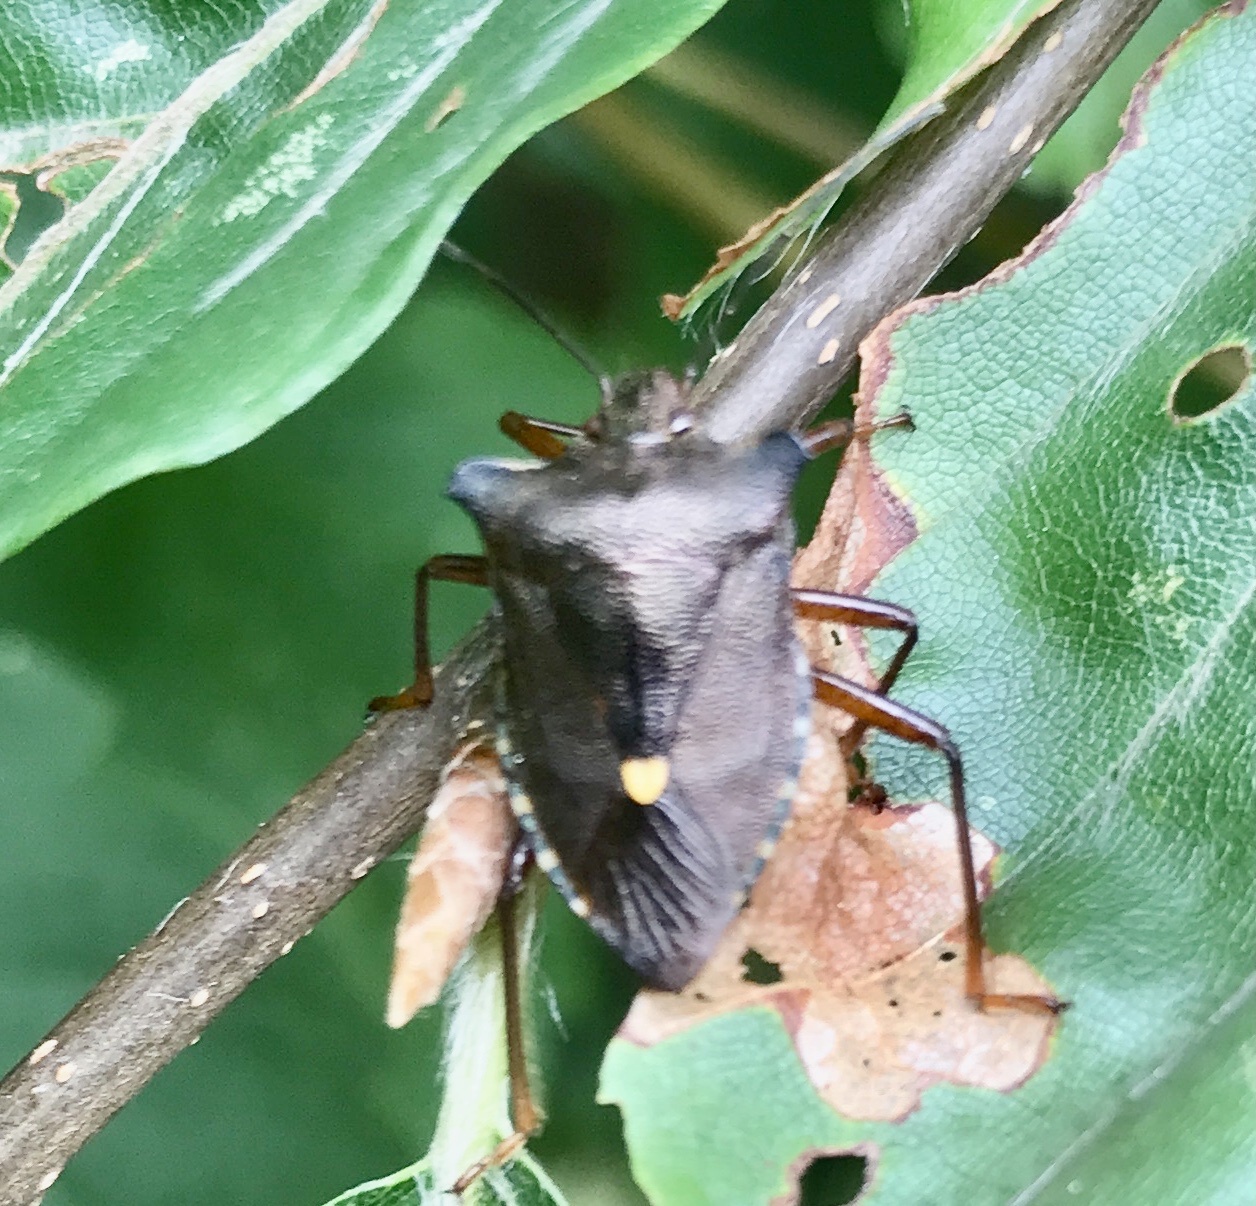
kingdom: Animalia
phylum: Arthropoda
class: Insecta
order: Hemiptera
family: Pentatomidae
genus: Pentatoma
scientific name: Pentatoma rufipes
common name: Forest bug
